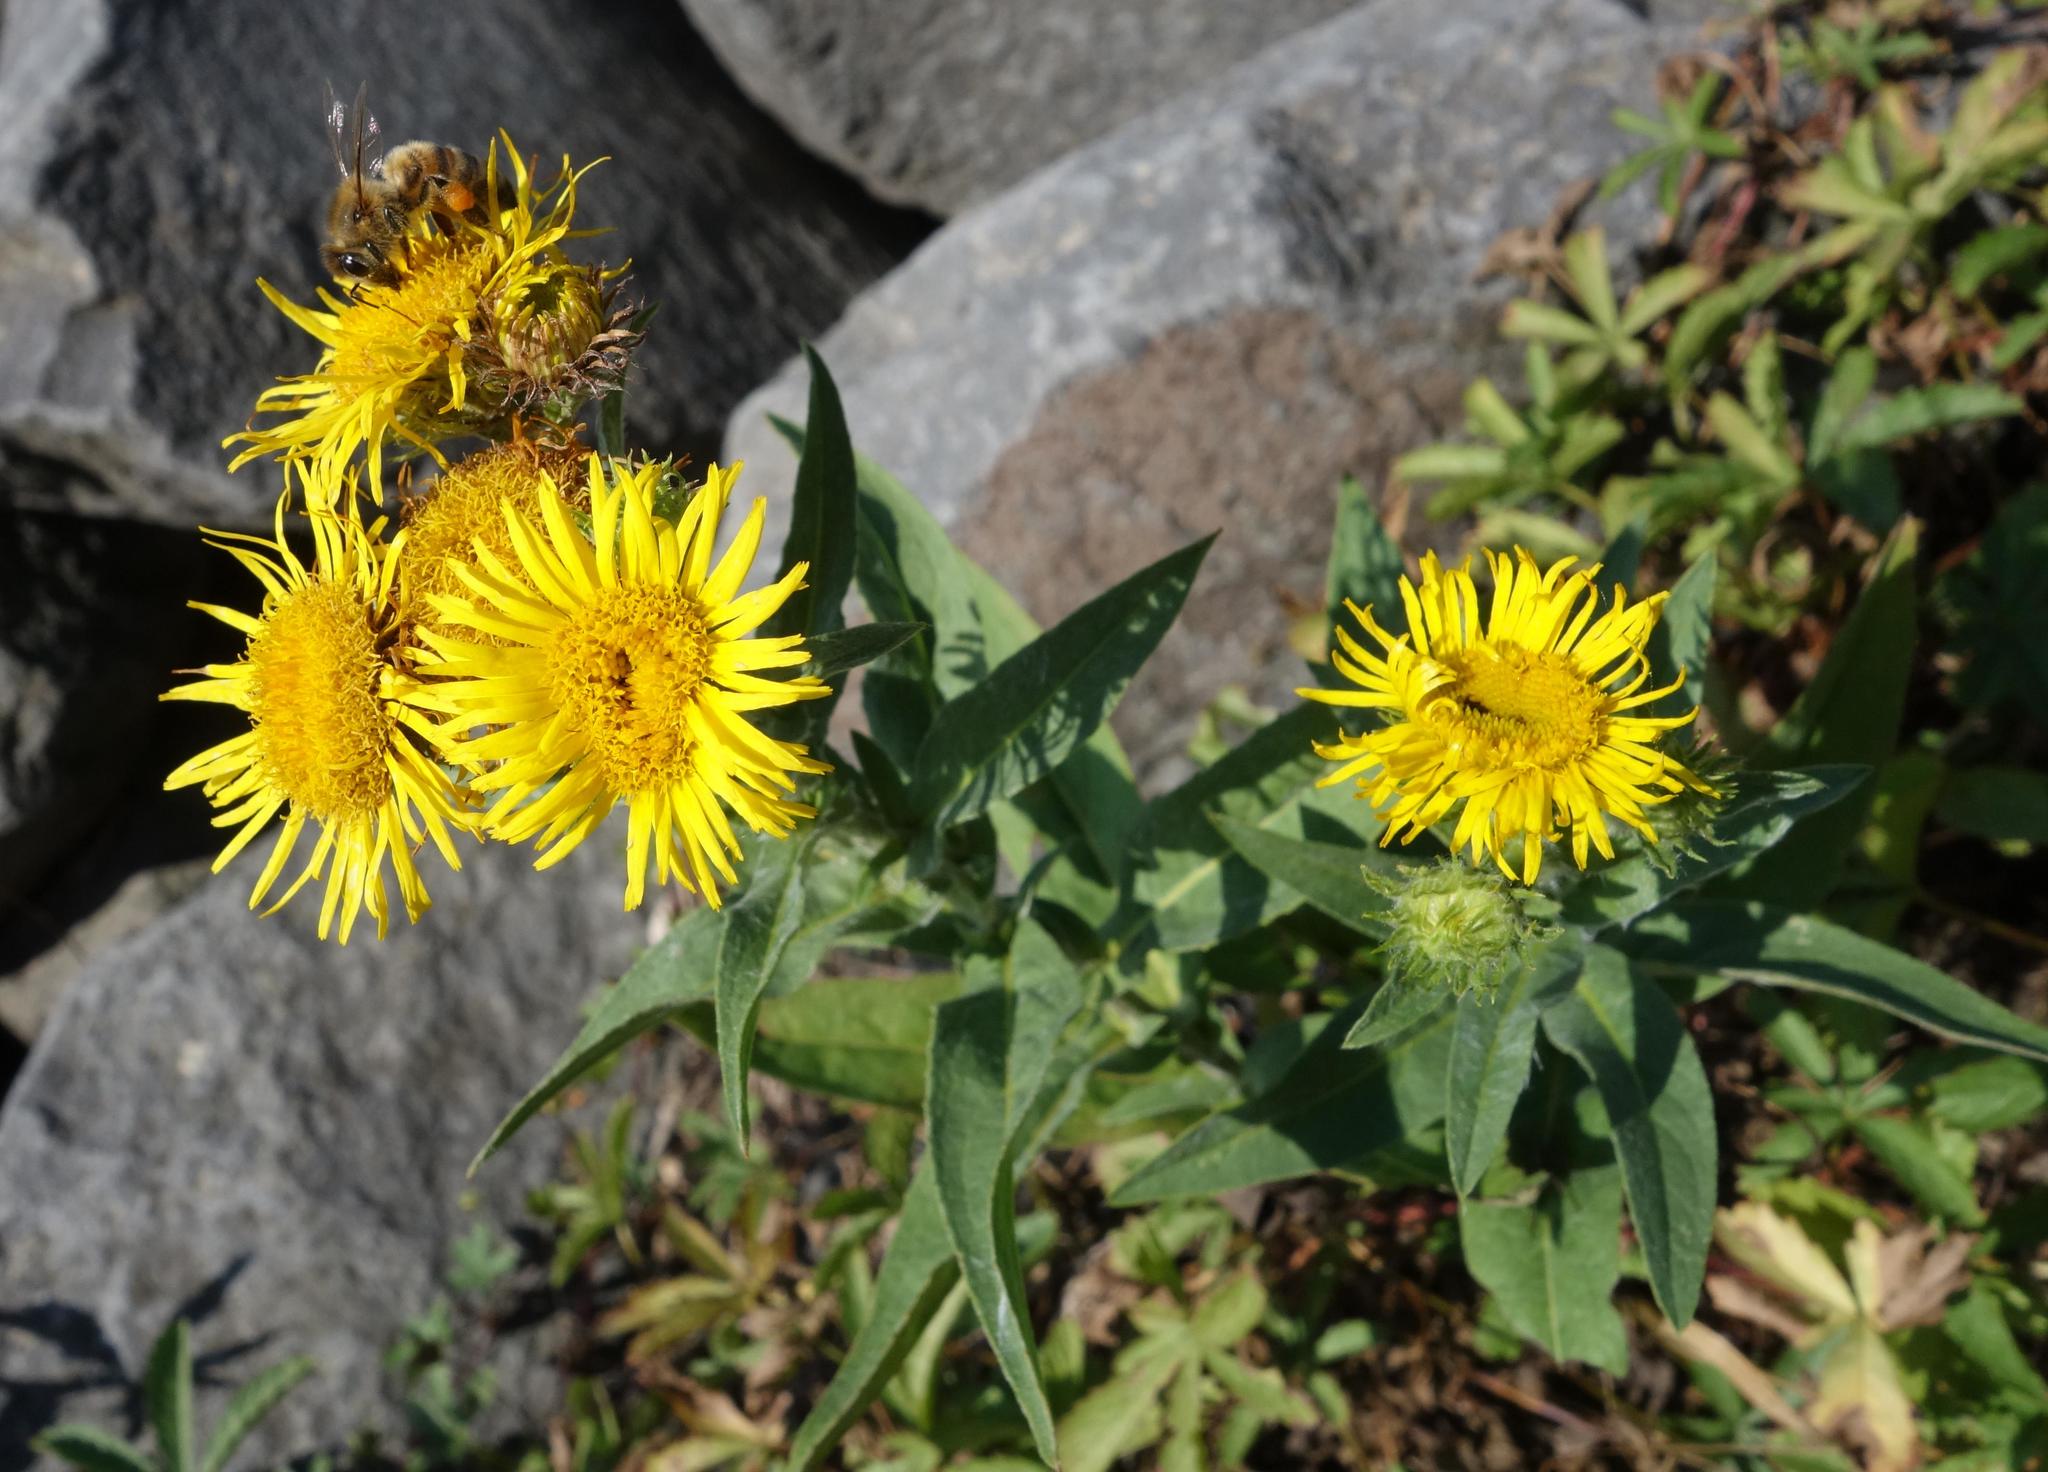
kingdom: Plantae
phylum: Tracheophyta
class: Magnoliopsida
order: Asterales
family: Asteraceae
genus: Pentanema
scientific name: Pentanema britannicum
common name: British elecampane
